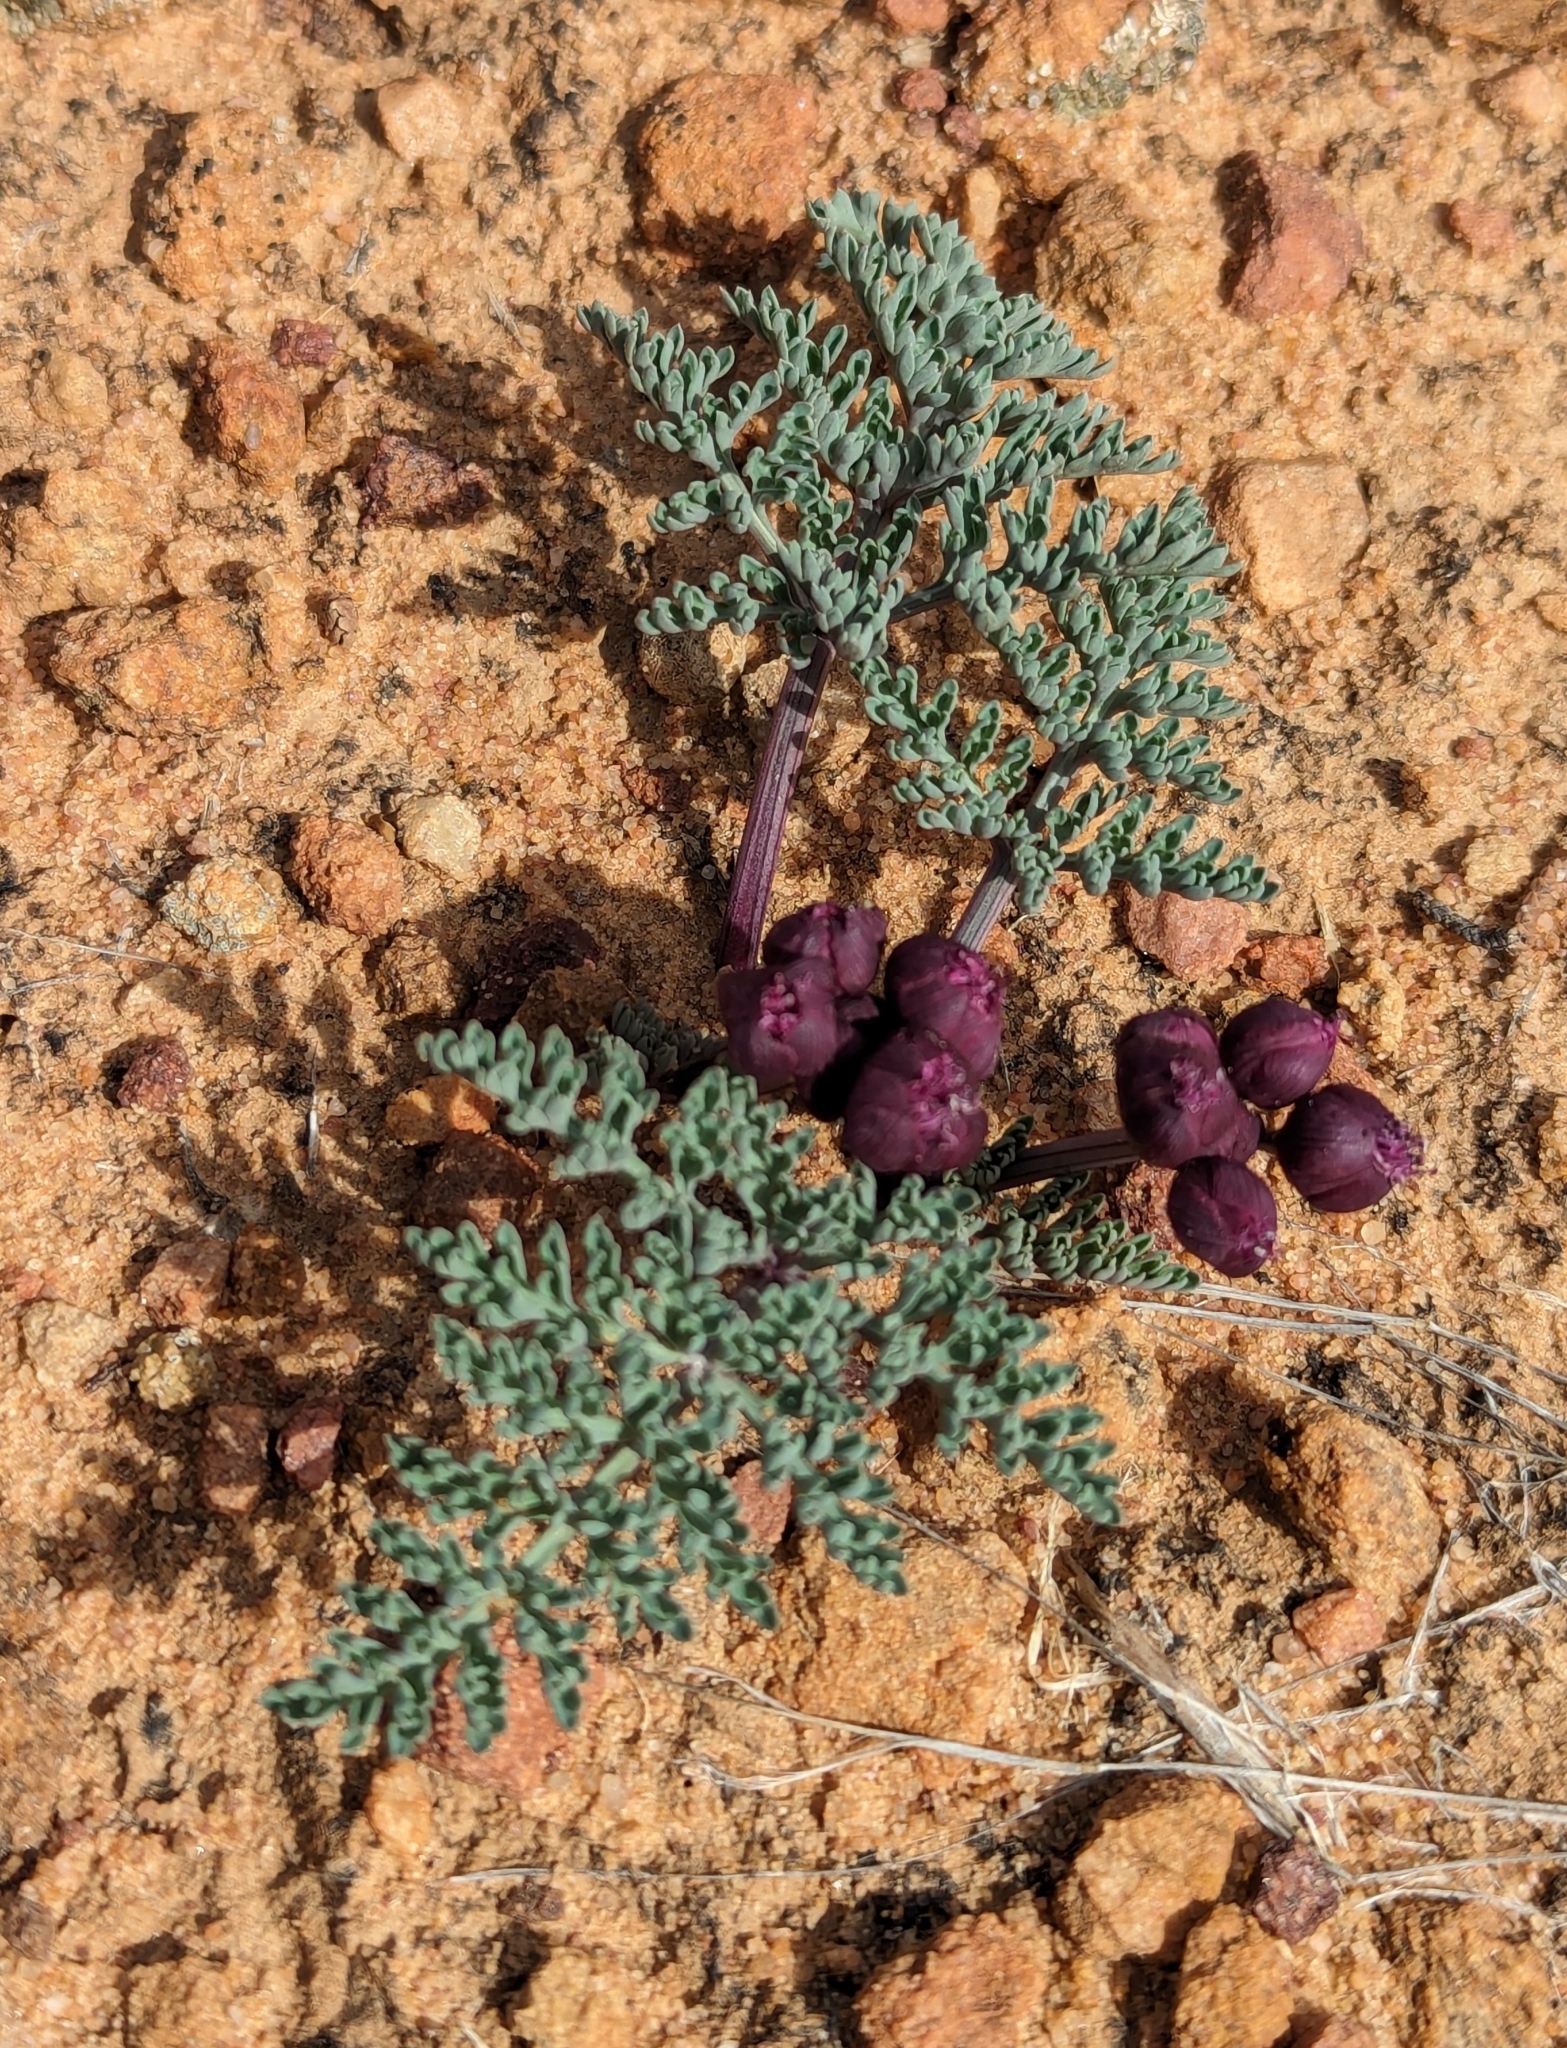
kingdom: Plantae
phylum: Tracheophyta
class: Magnoliopsida
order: Apiales
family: Apiaceae
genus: Vesper
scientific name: Vesper multinervatus
